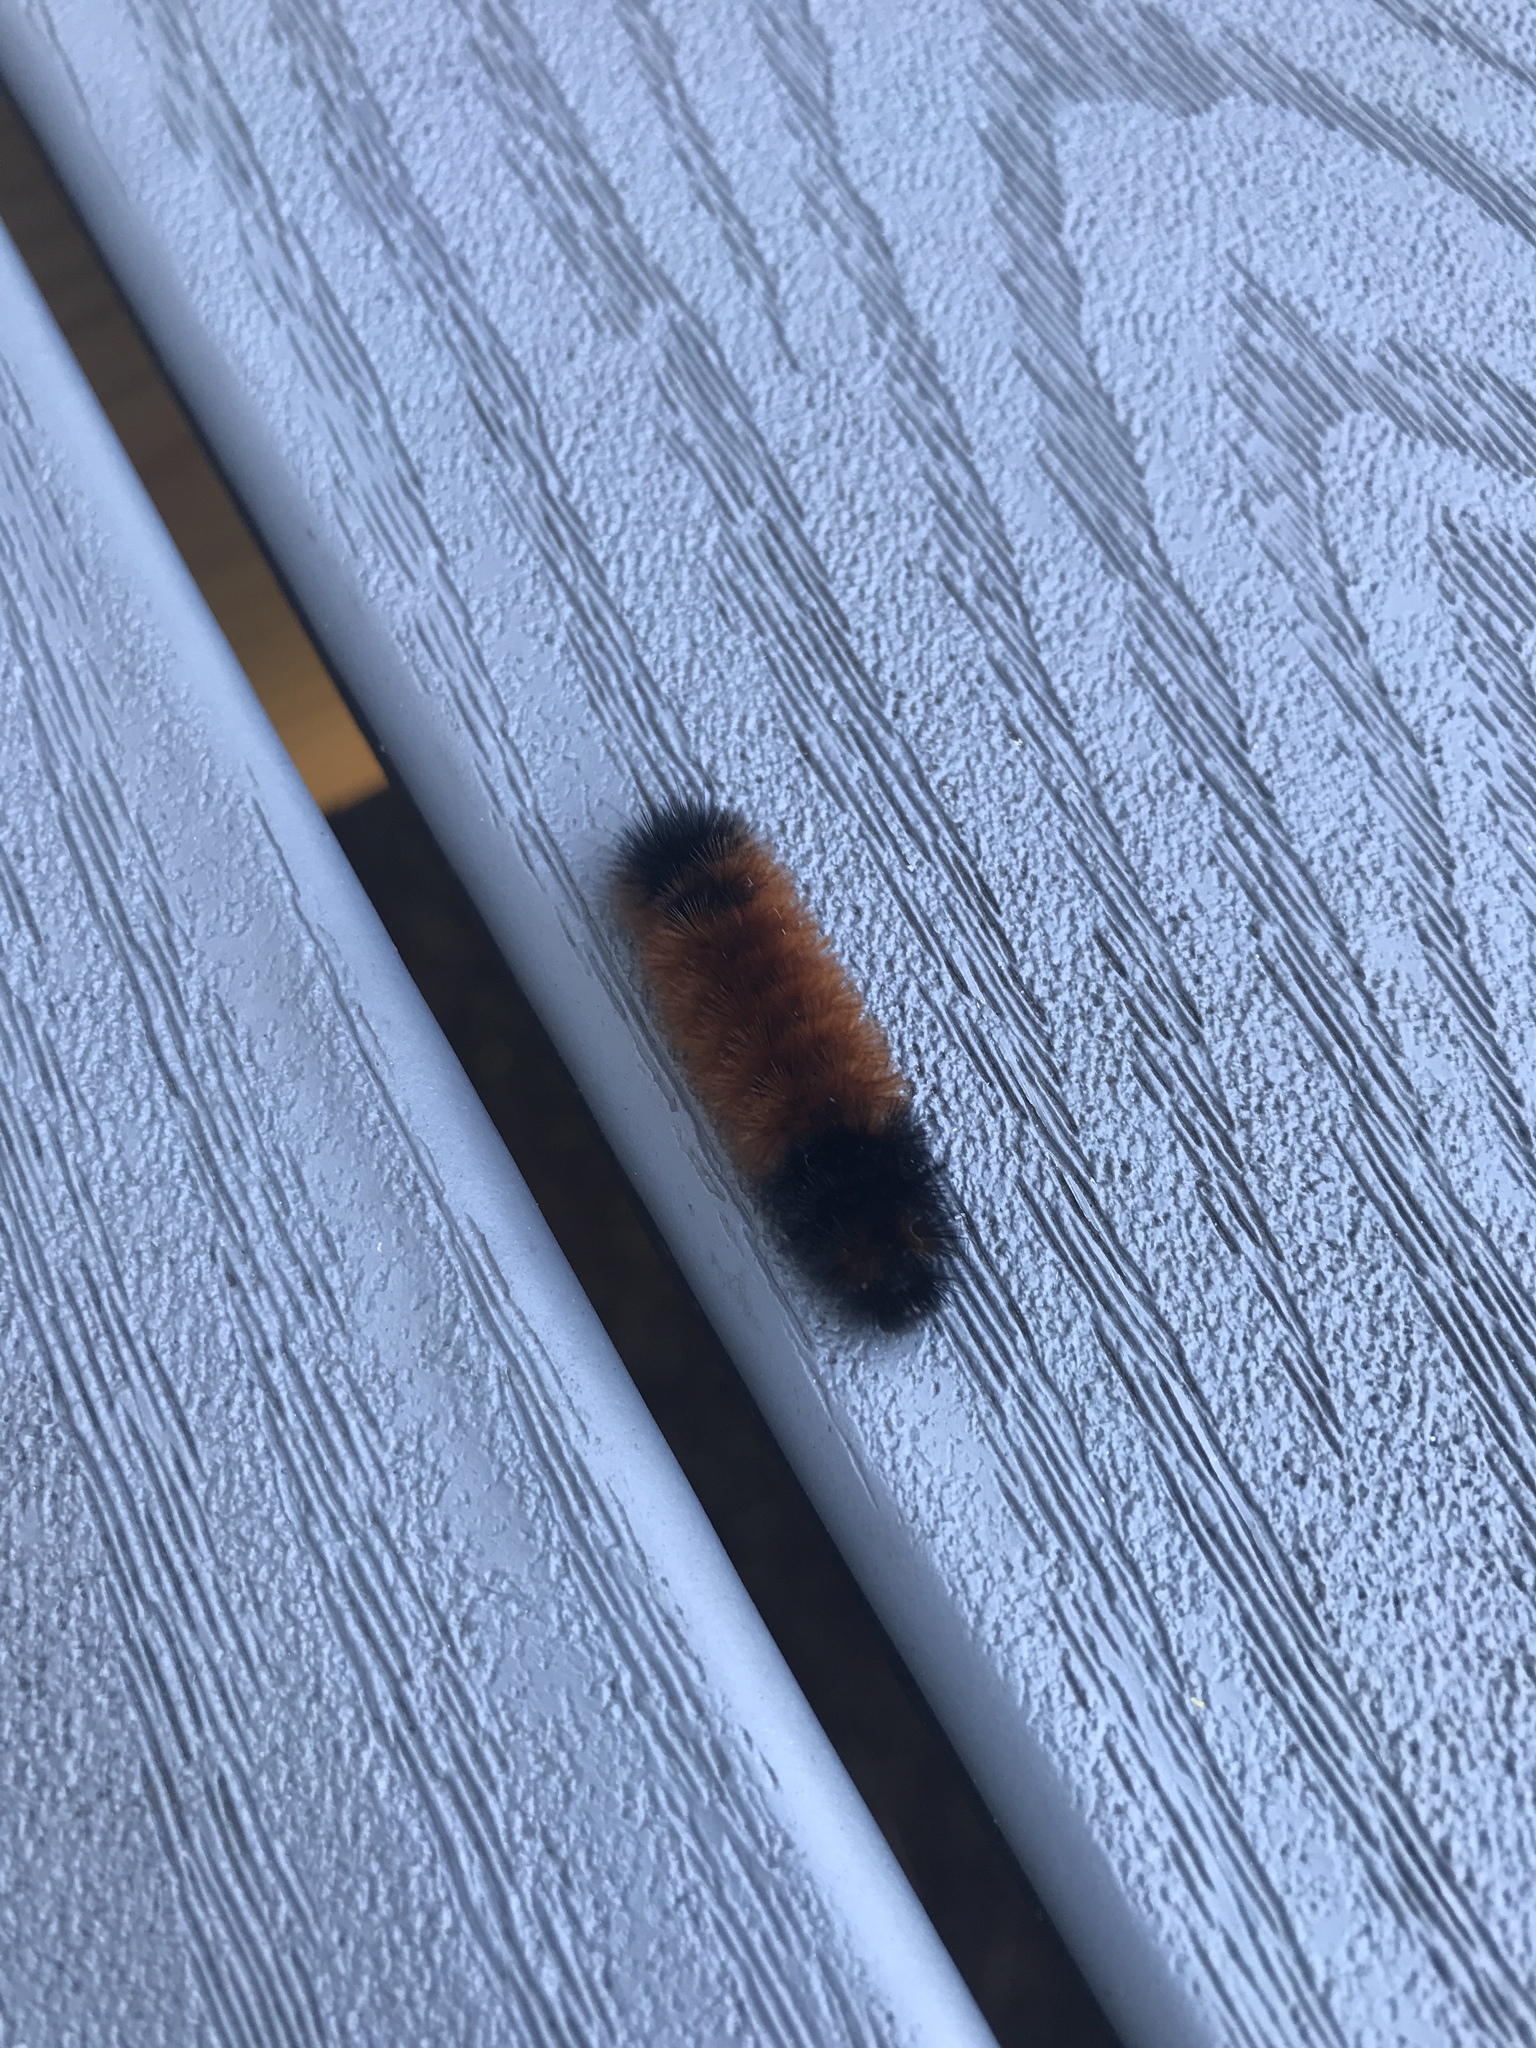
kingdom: Animalia
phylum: Arthropoda
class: Insecta
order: Lepidoptera
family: Erebidae
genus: Pyrrharctia
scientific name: Pyrrharctia isabella
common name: Isabella tiger moth
